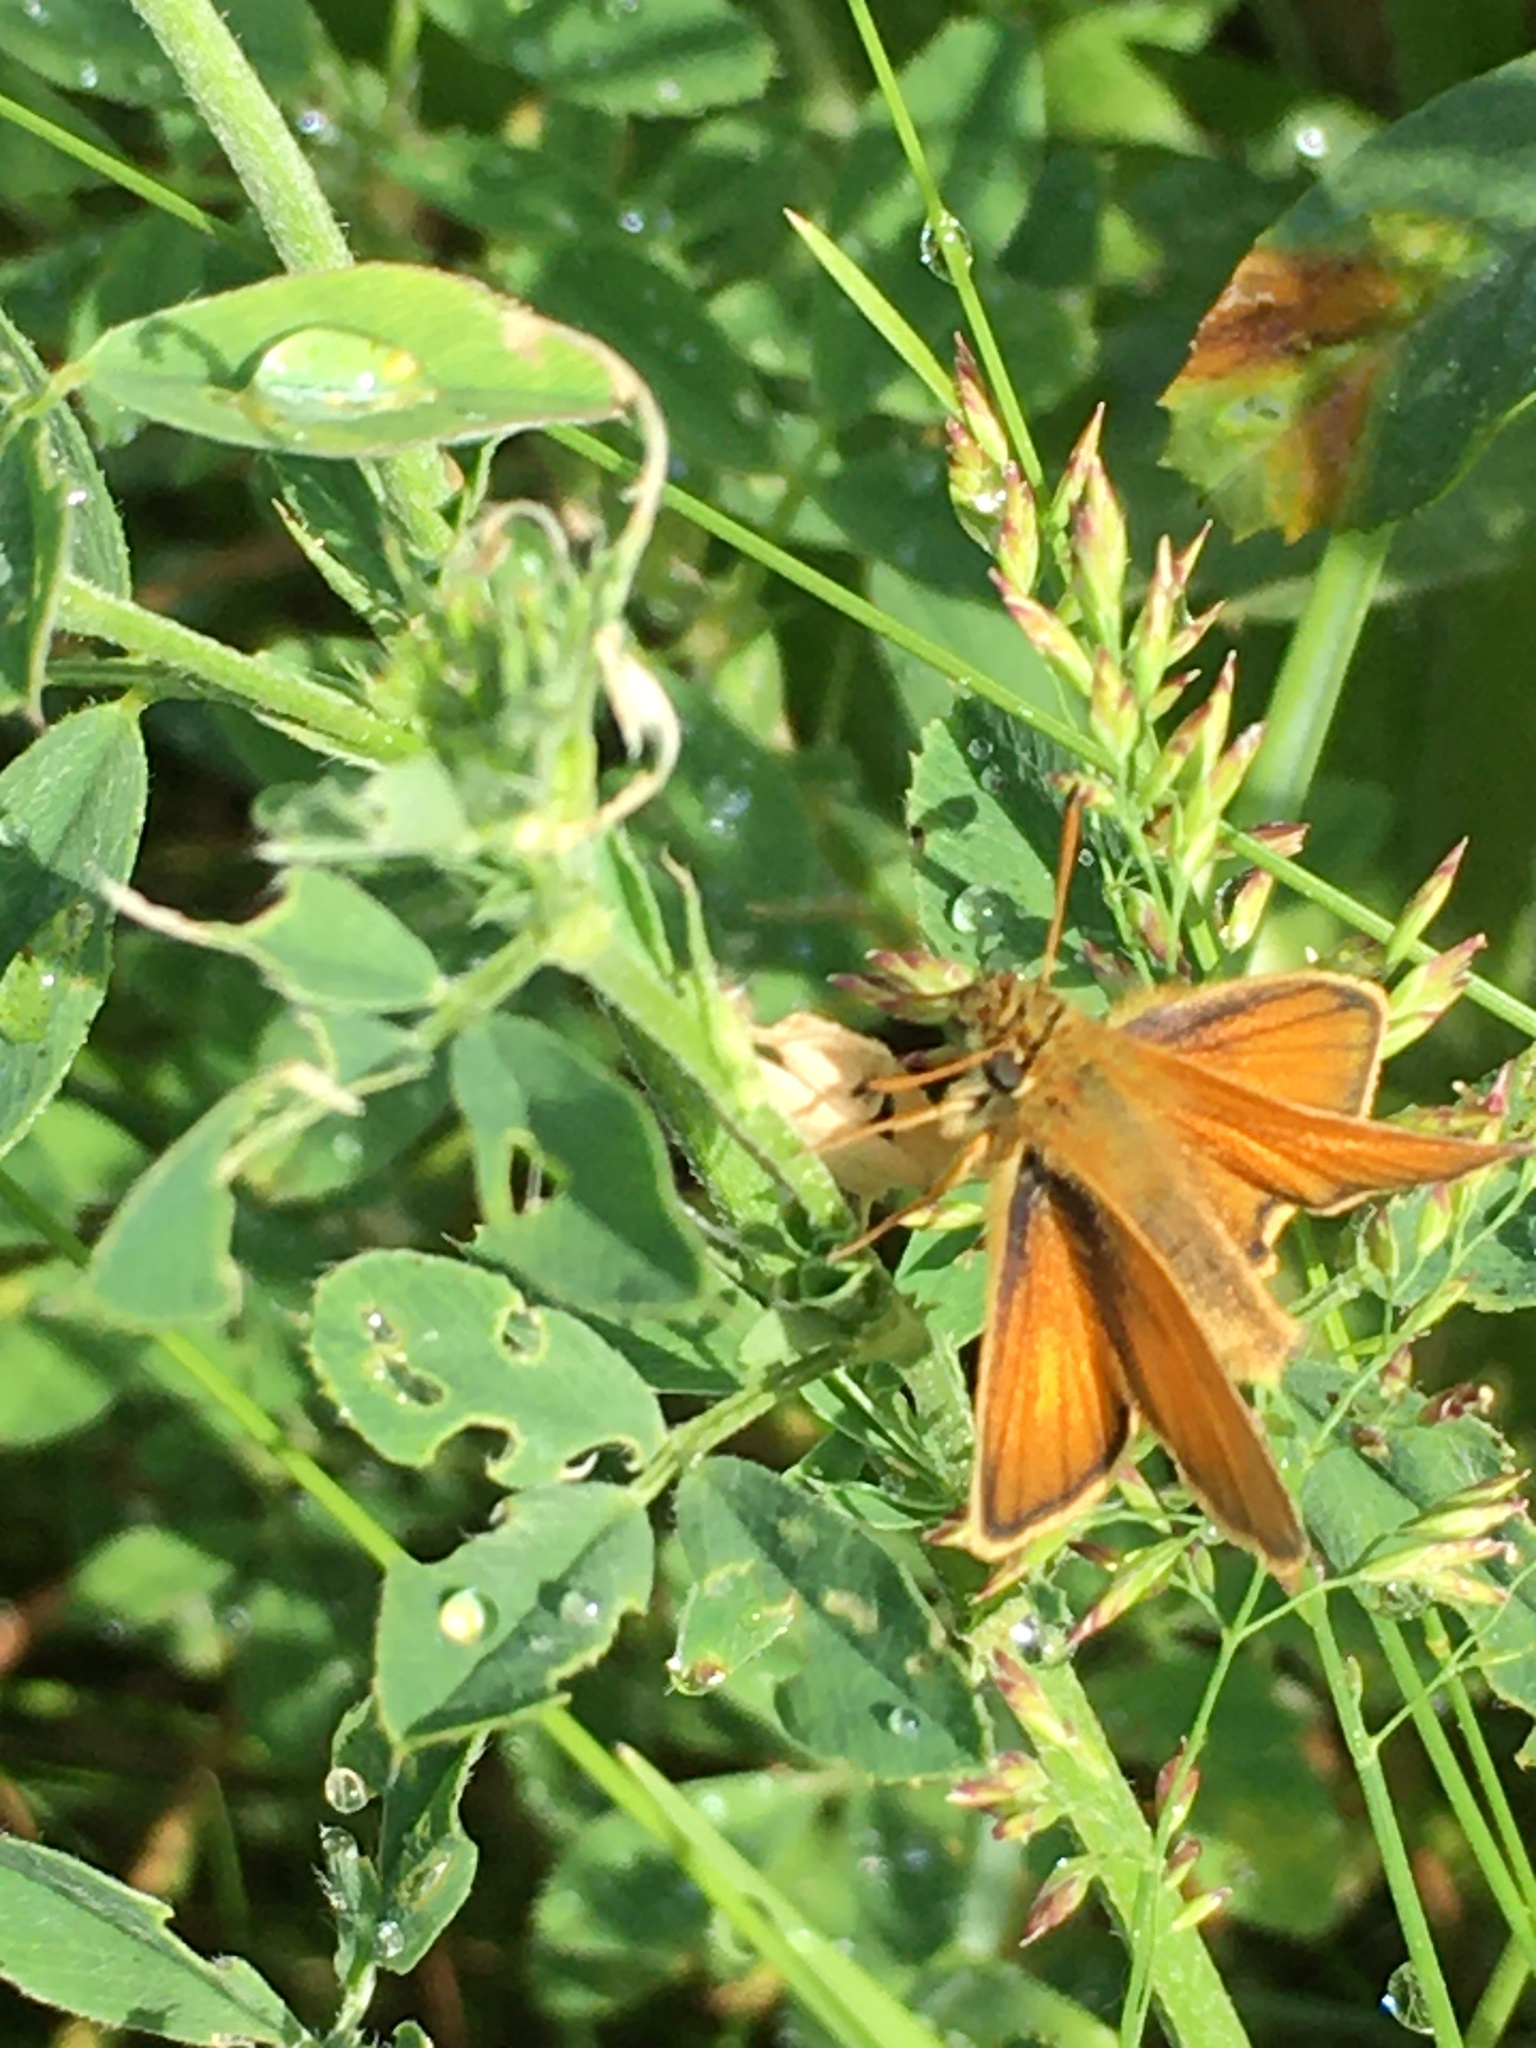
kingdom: Animalia
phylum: Arthropoda
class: Insecta
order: Lepidoptera
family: Hesperiidae
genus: Thymelicus
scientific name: Thymelicus lineola
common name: Essex skipper
